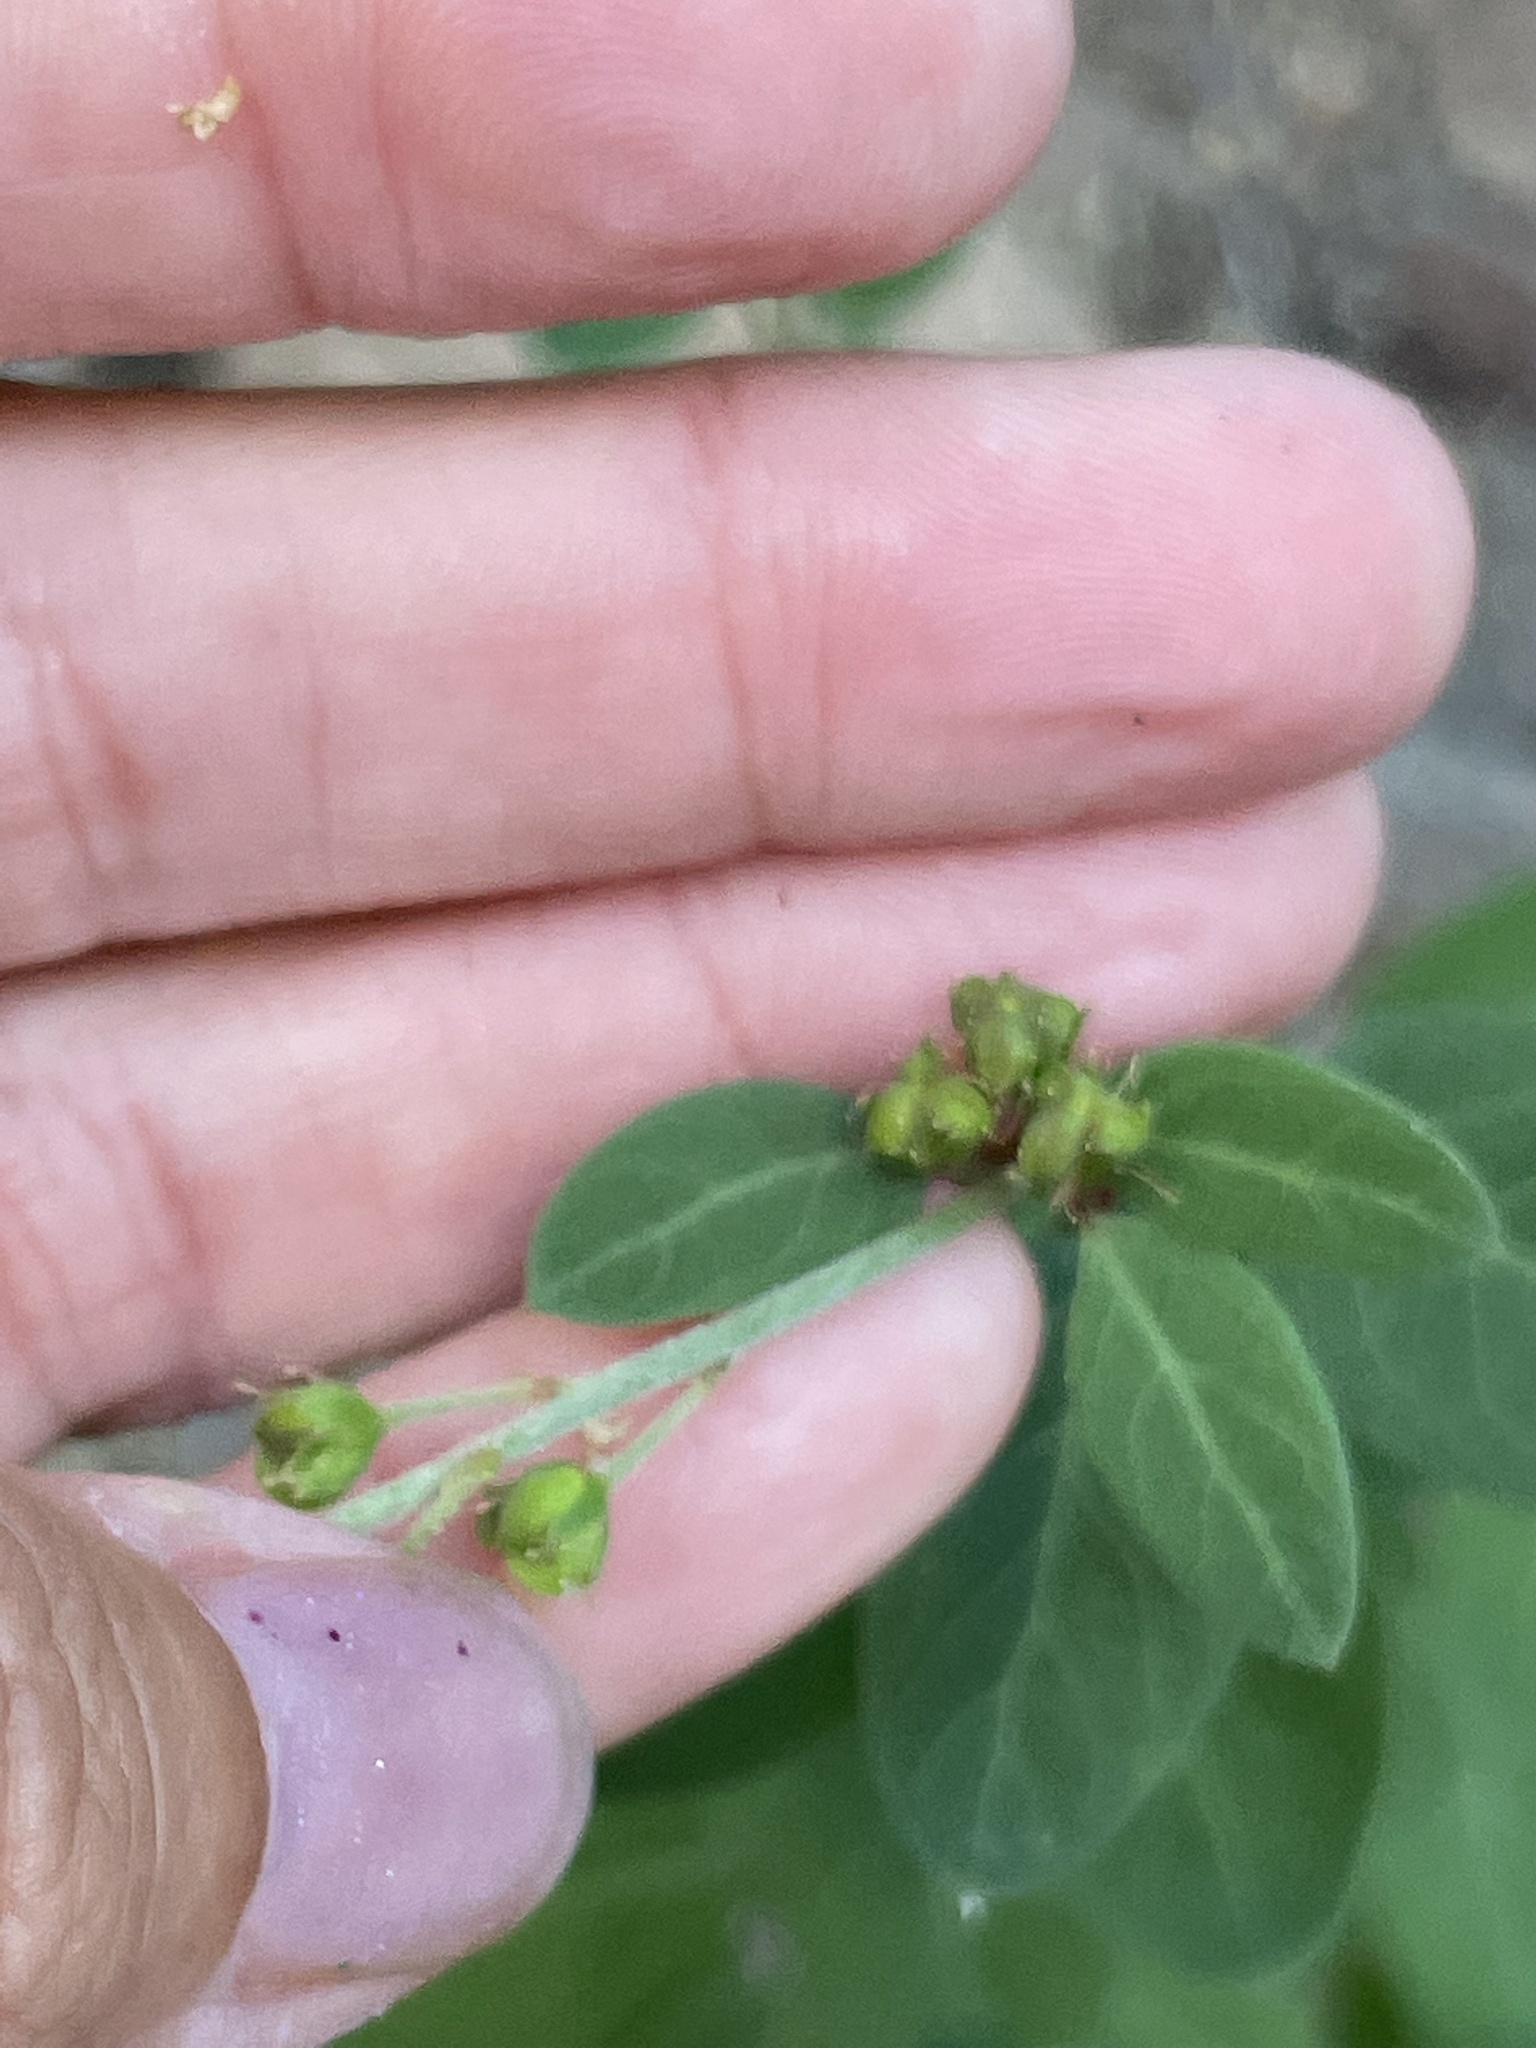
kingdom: Plantae
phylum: Tracheophyta
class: Magnoliopsida
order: Malpighiales
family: Malpighiaceae
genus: Galphimia
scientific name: Galphimia angustifolia
